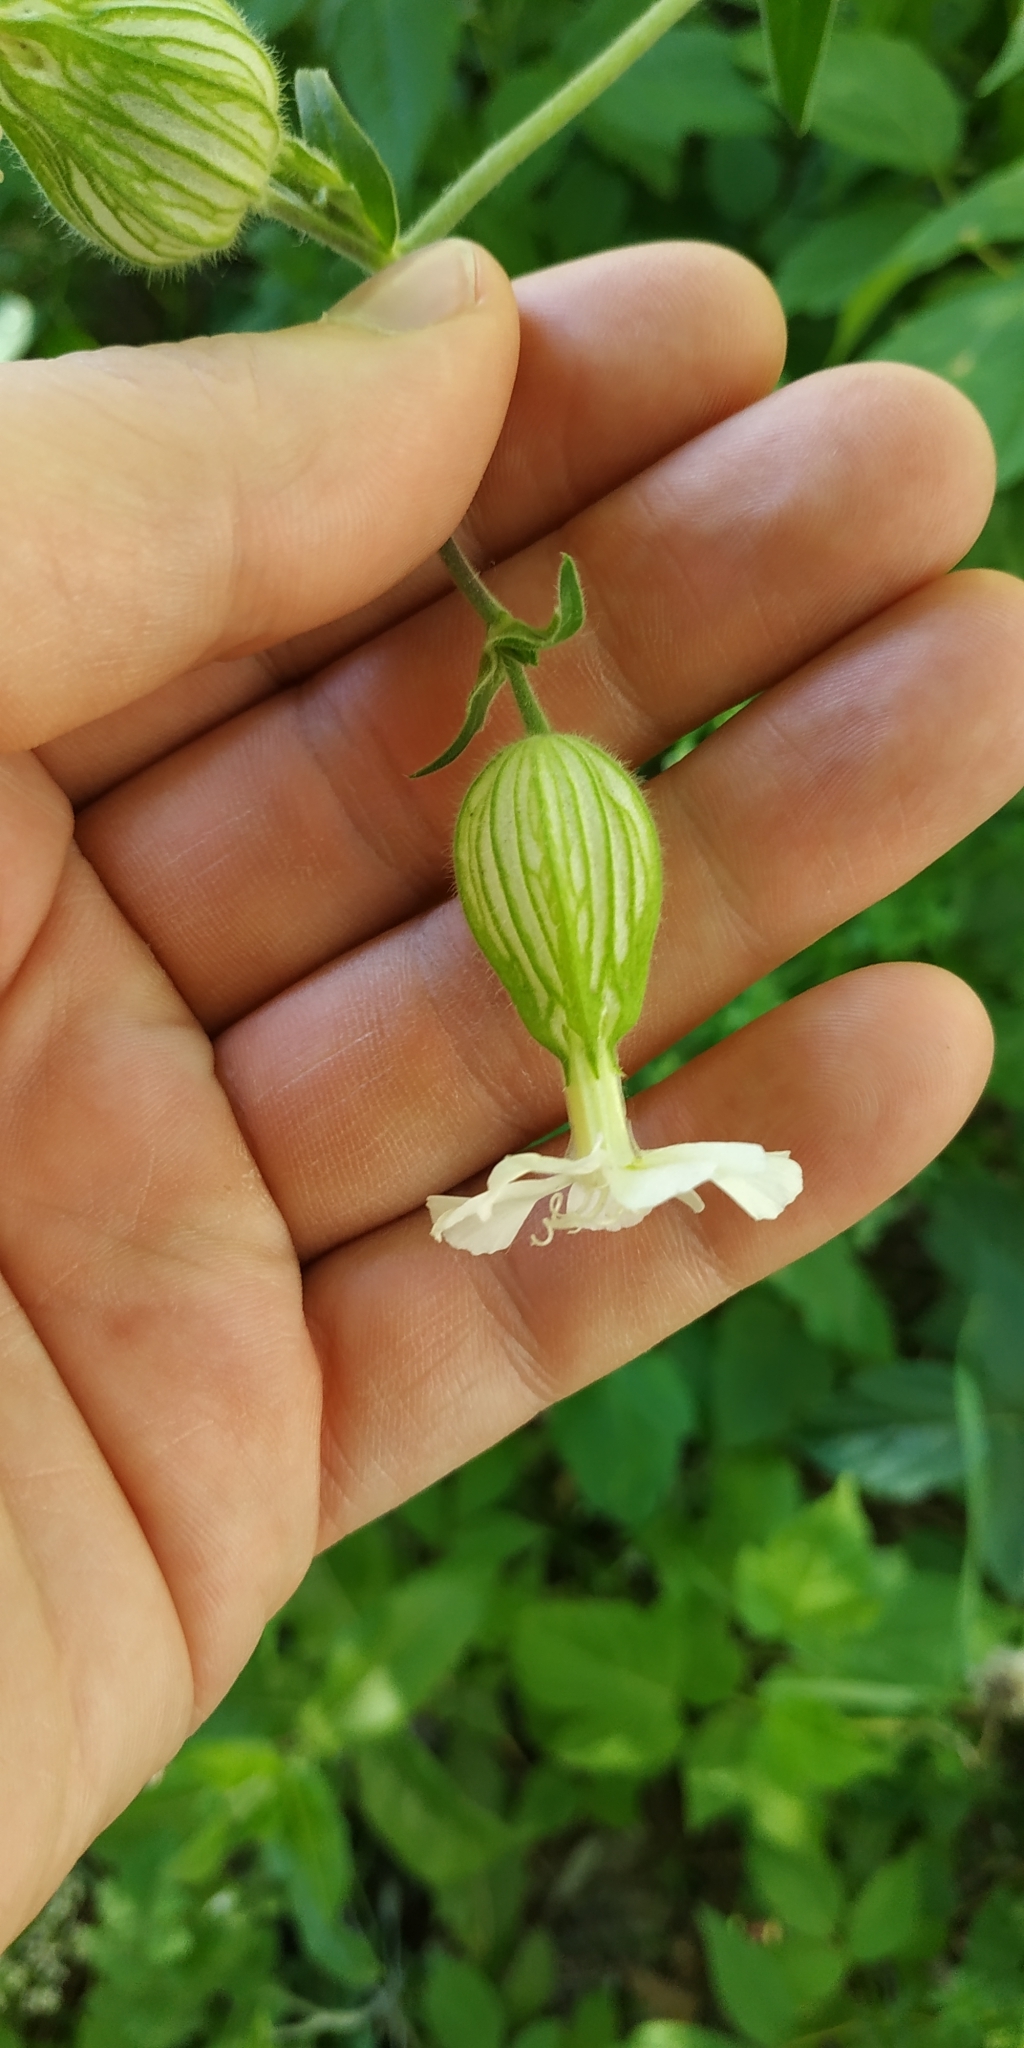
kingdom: Plantae
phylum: Tracheophyta
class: Magnoliopsida
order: Caryophyllales
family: Caryophyllaceae
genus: Silene
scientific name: Silene latifolia
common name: White campion
